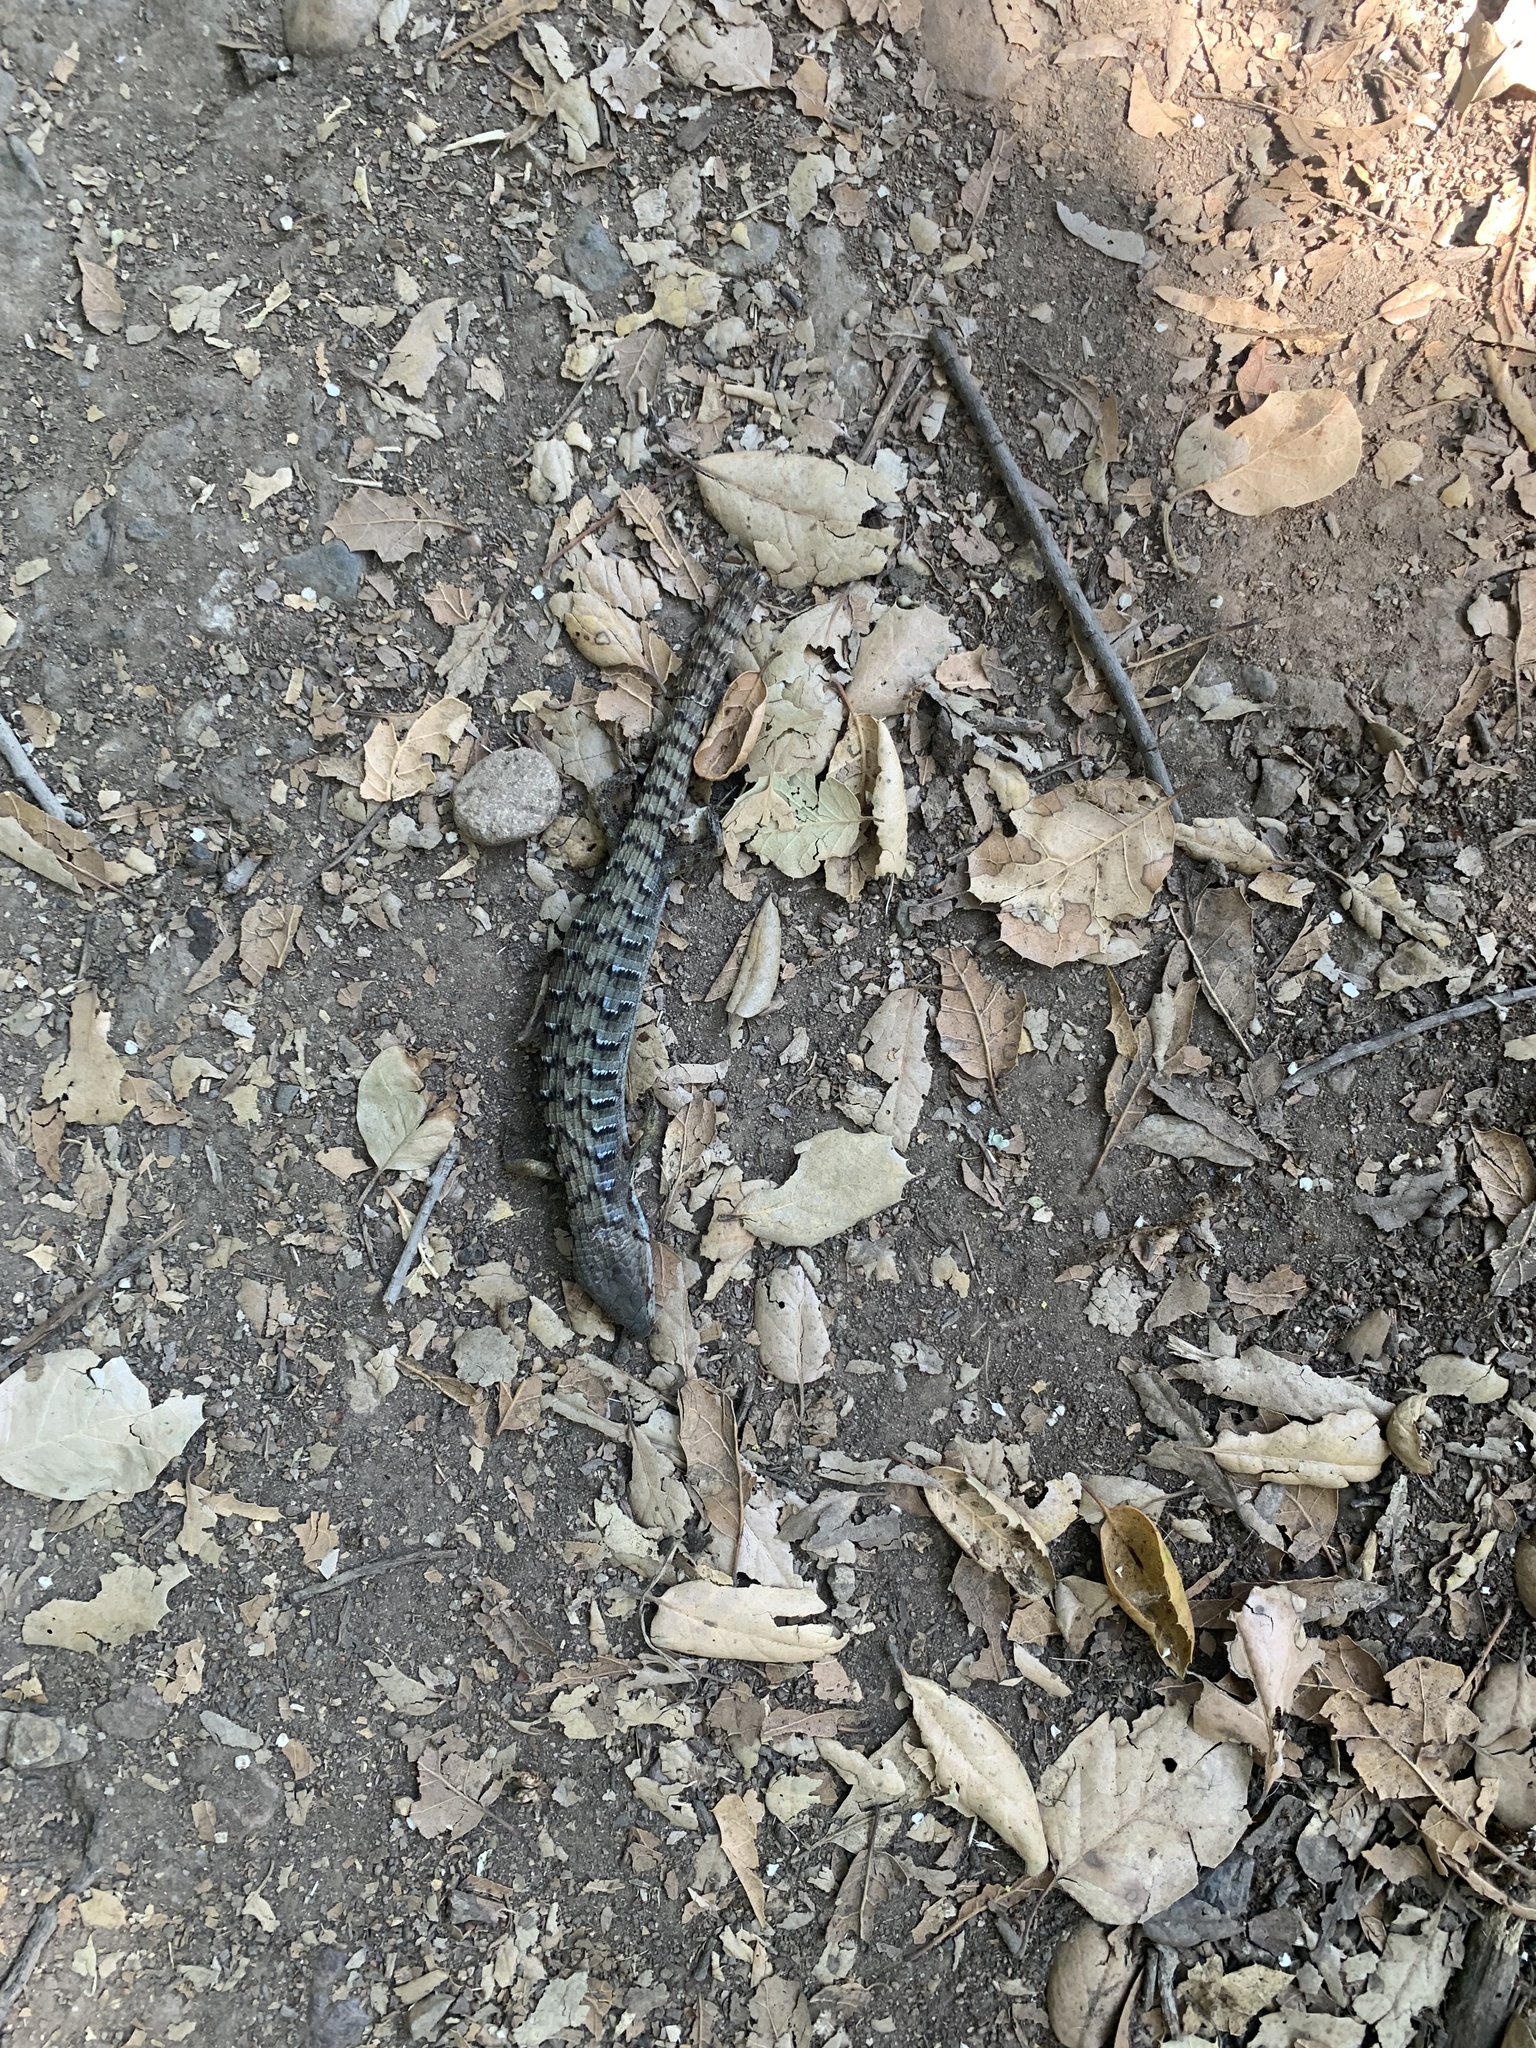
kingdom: Animalia
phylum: Chordata
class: Squamata
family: Anguidae
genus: Elgaria
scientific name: Elgaria multicarinata
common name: Southern alligator lizard
